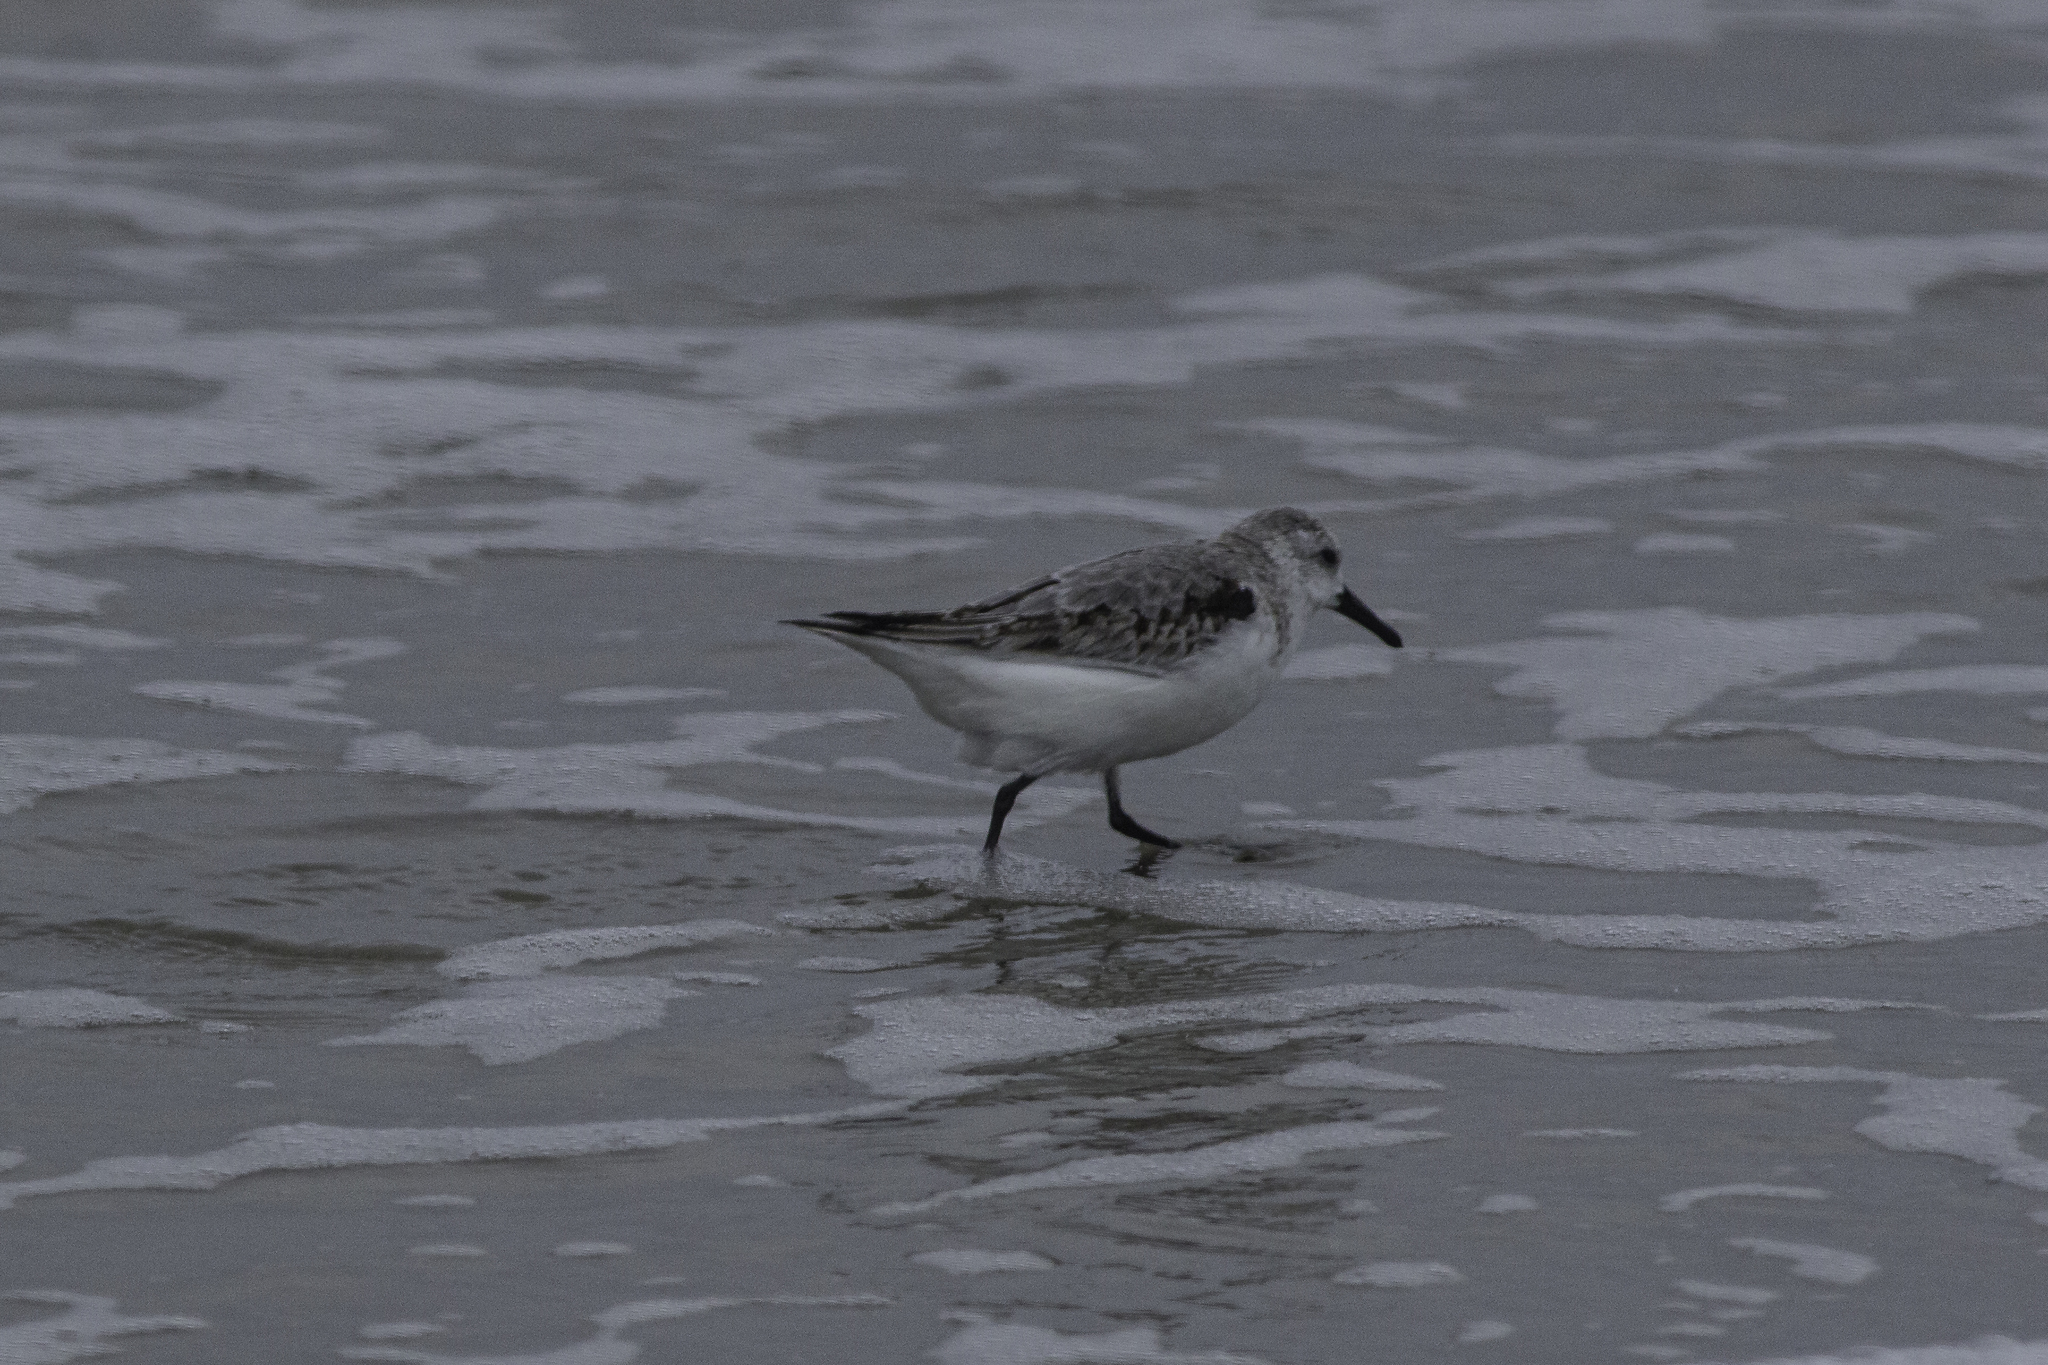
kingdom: Animalia
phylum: Chordata
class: Aves
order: Charadriiformes
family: Scolopacidae
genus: Calidris
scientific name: Calidris alba
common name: Sanderling
